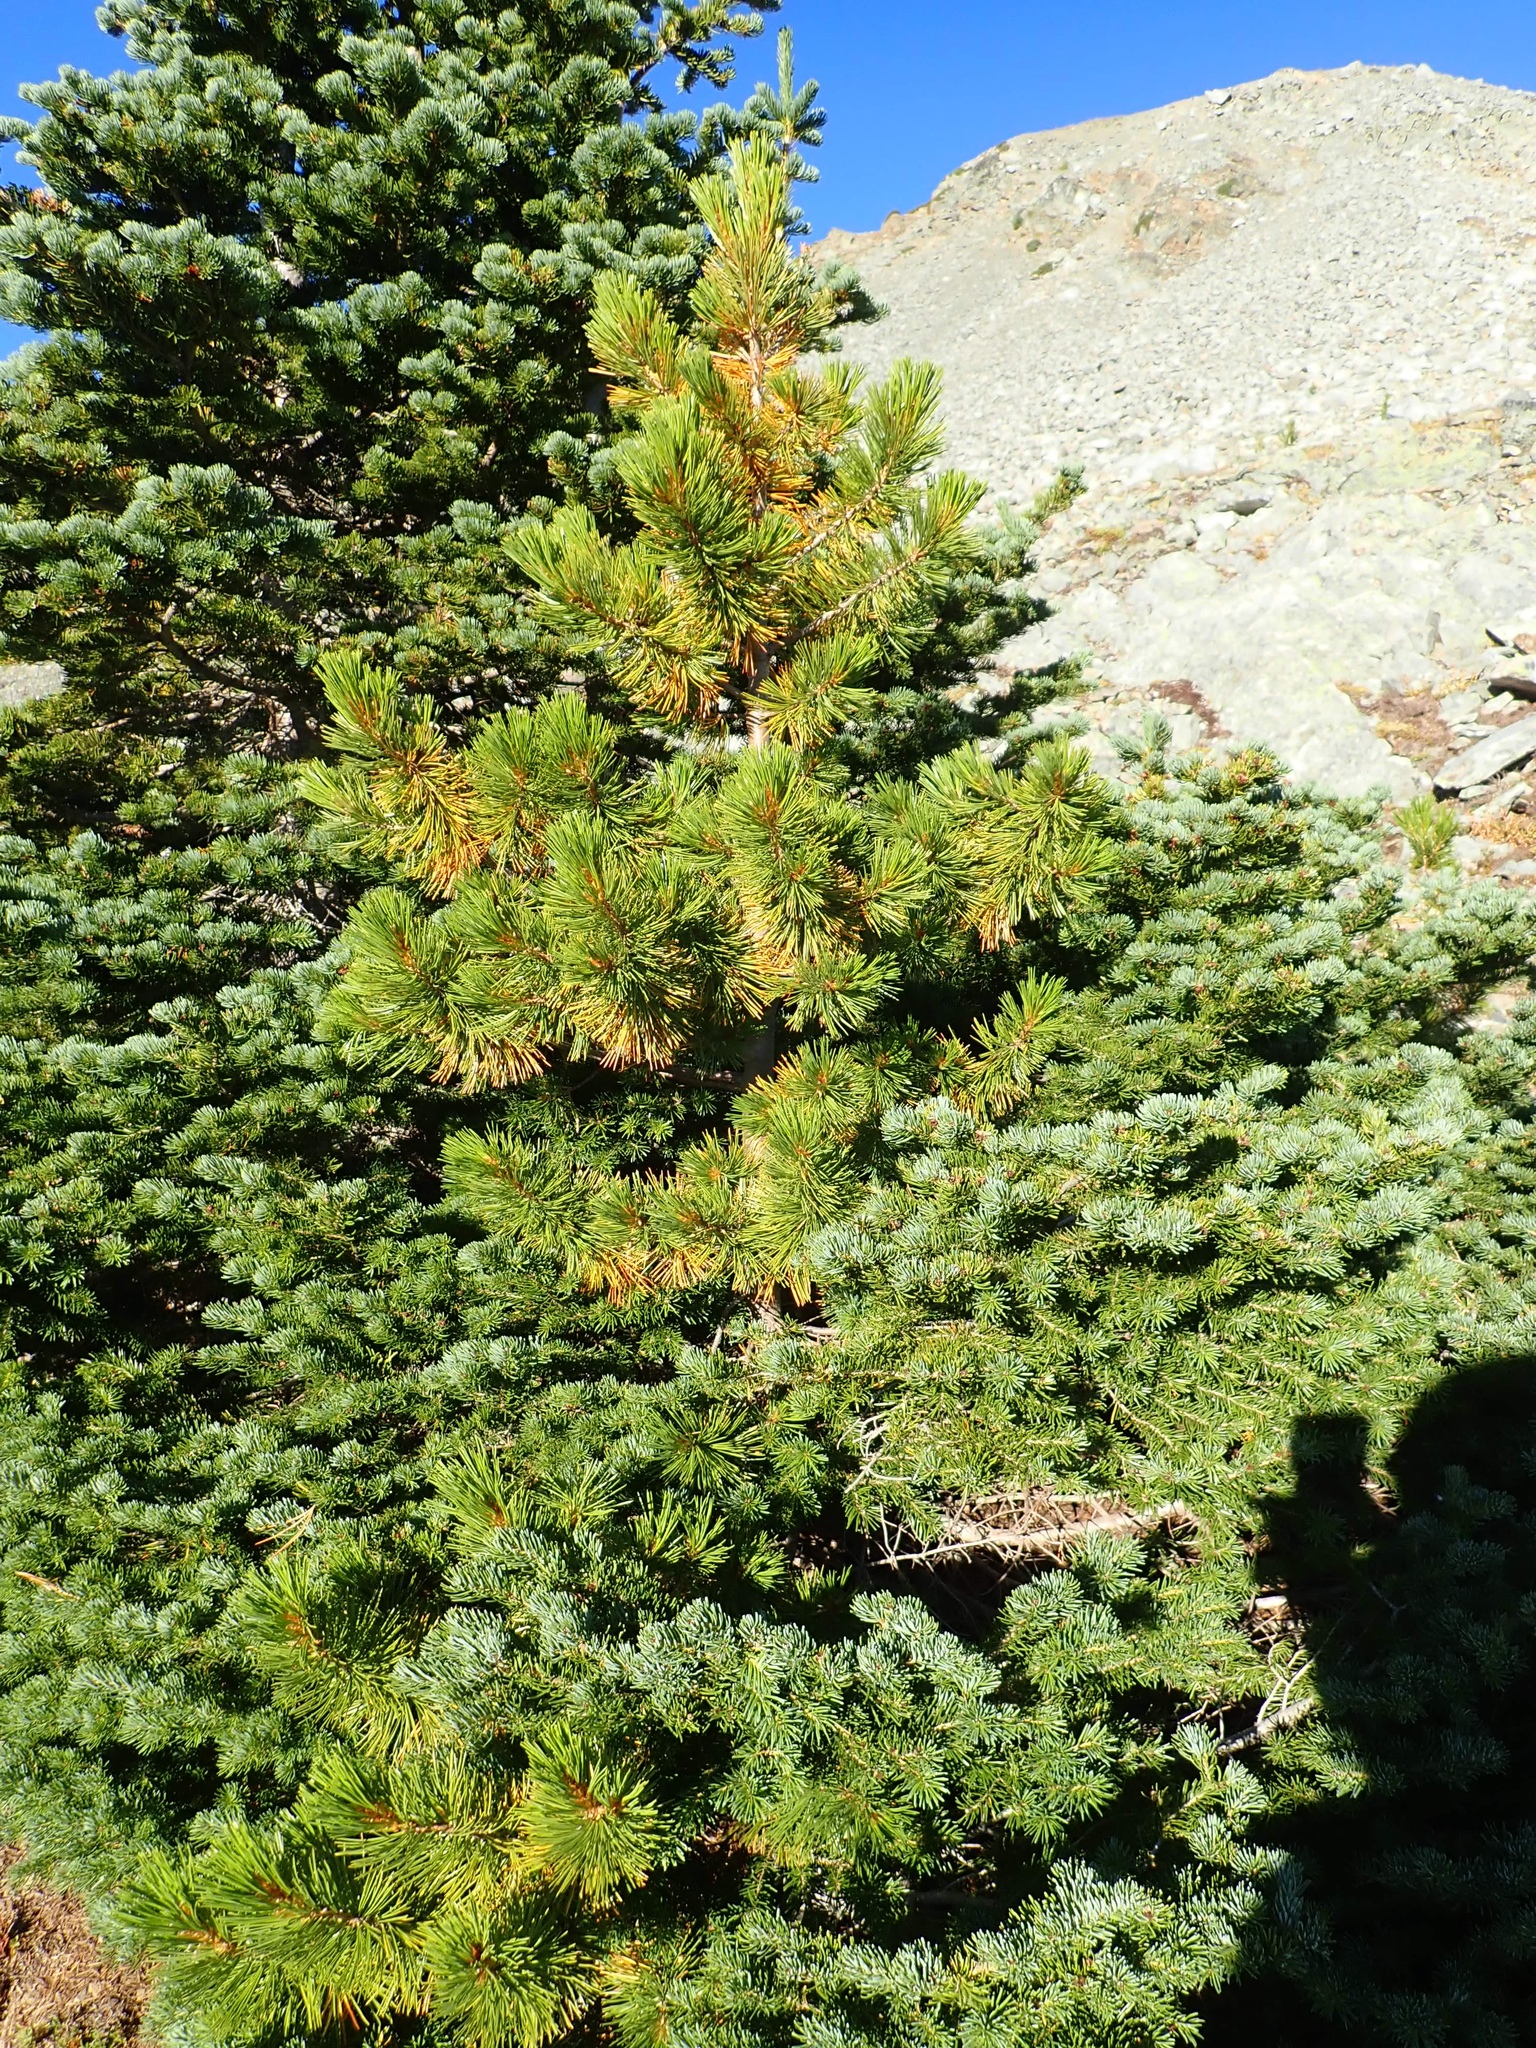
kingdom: Plantae
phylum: Tracheophyta
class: Pinopsida
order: Pinales
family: Pinaceae
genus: Pinus
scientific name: Pinus albicaulis
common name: Whitebark pine
